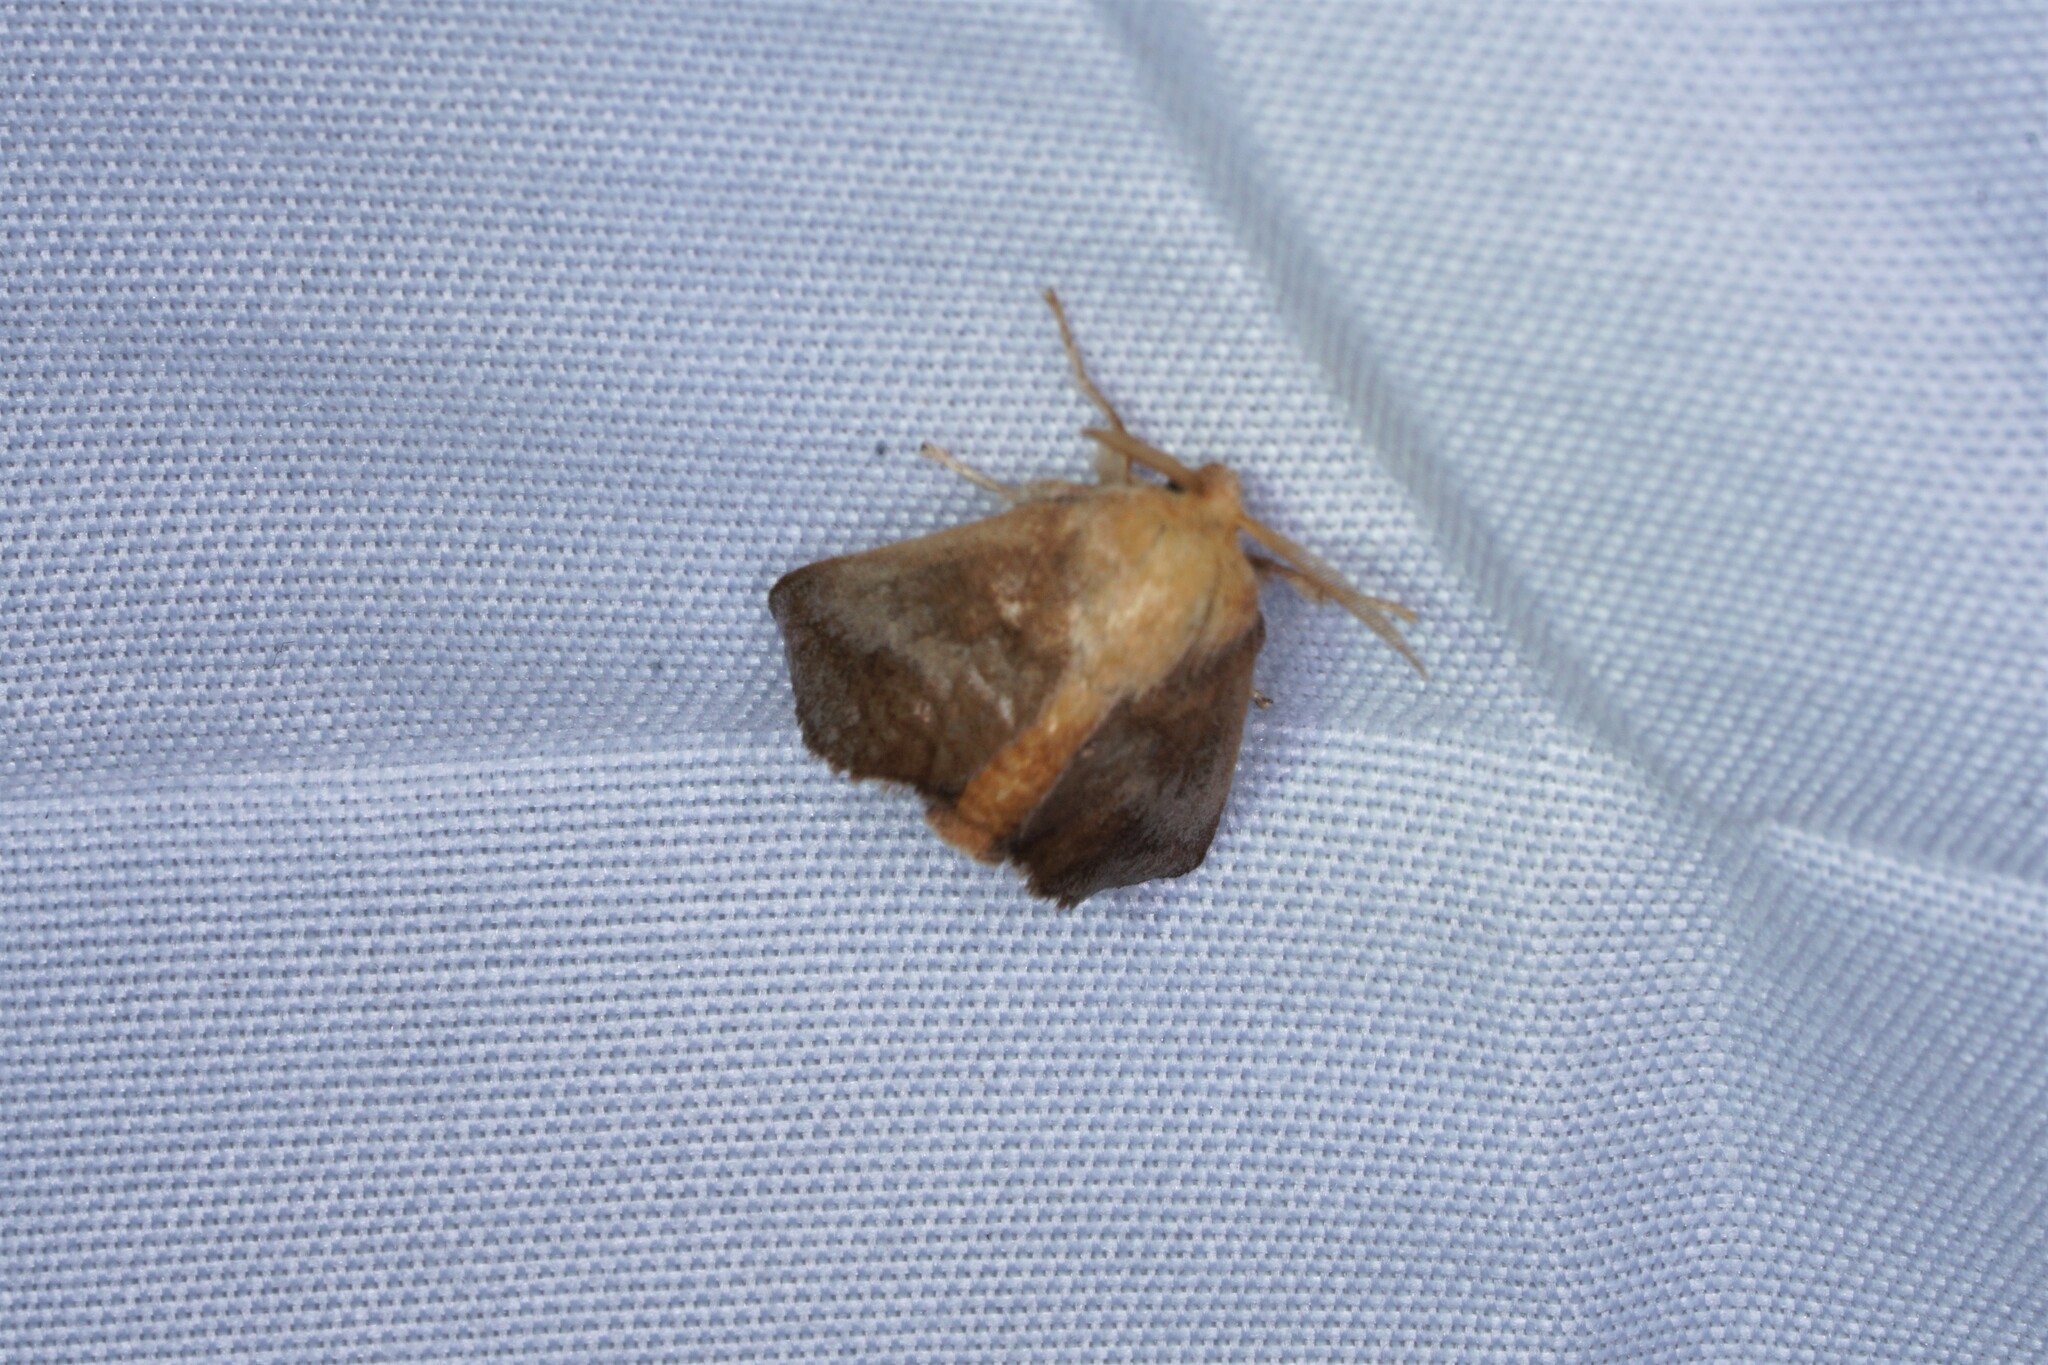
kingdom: Animalia
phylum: Arthropoda
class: Insecta
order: Lepidoptera
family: Limacodidae
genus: Isa
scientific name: Isa textula
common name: Crowned slug moth
